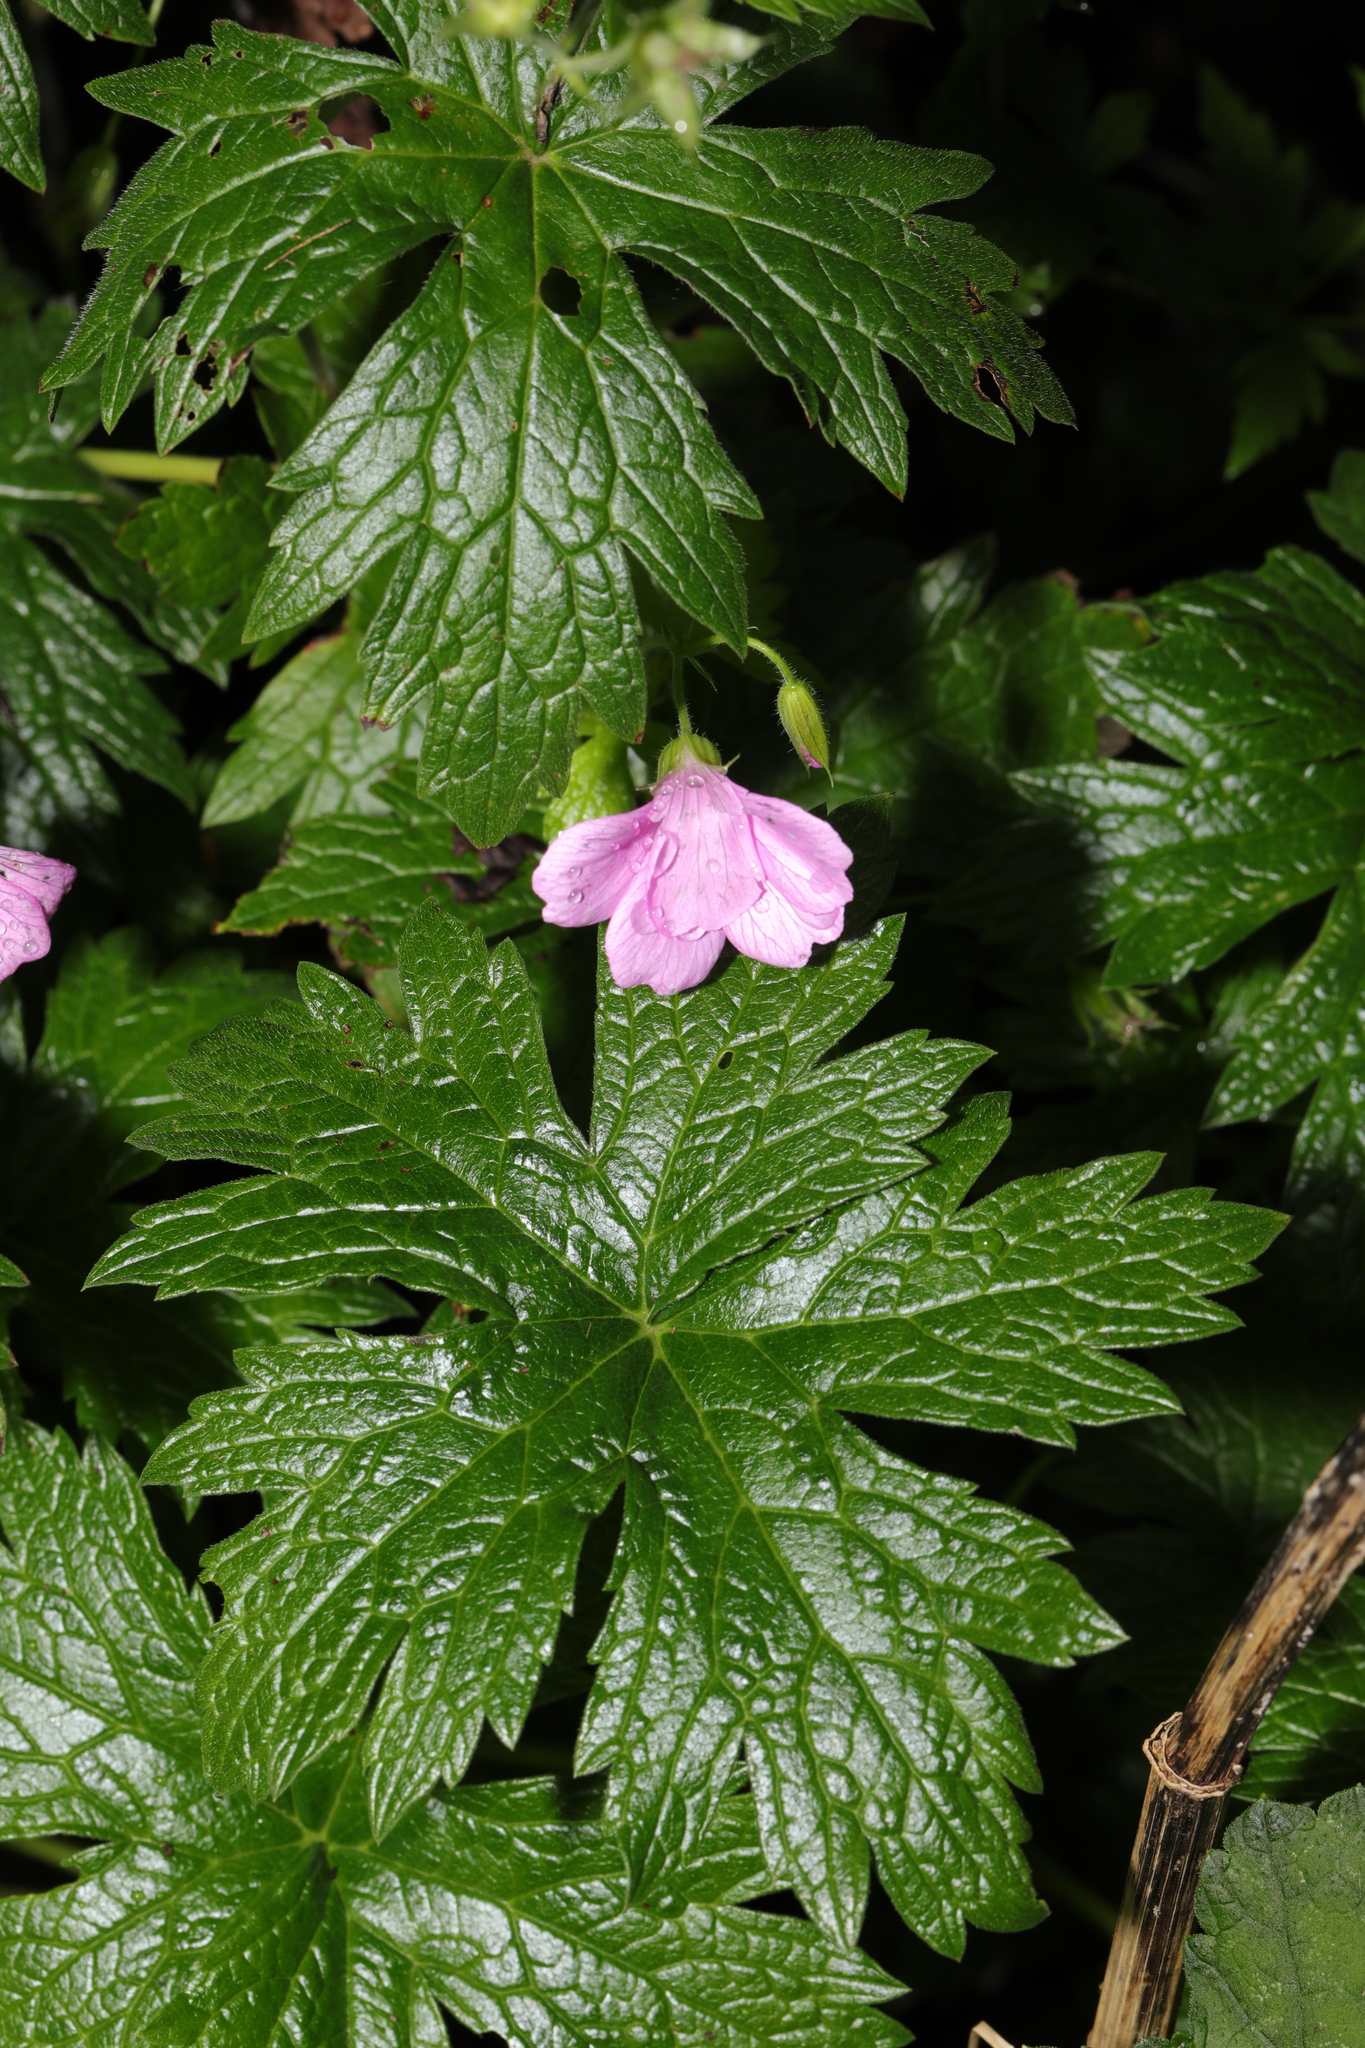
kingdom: Plantae
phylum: Tracheophyta
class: Magnoliopsida
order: Geraniales
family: Geraniaceae
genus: Geranium
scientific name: Geranium oxonianum
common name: Druce's crane's-bill
